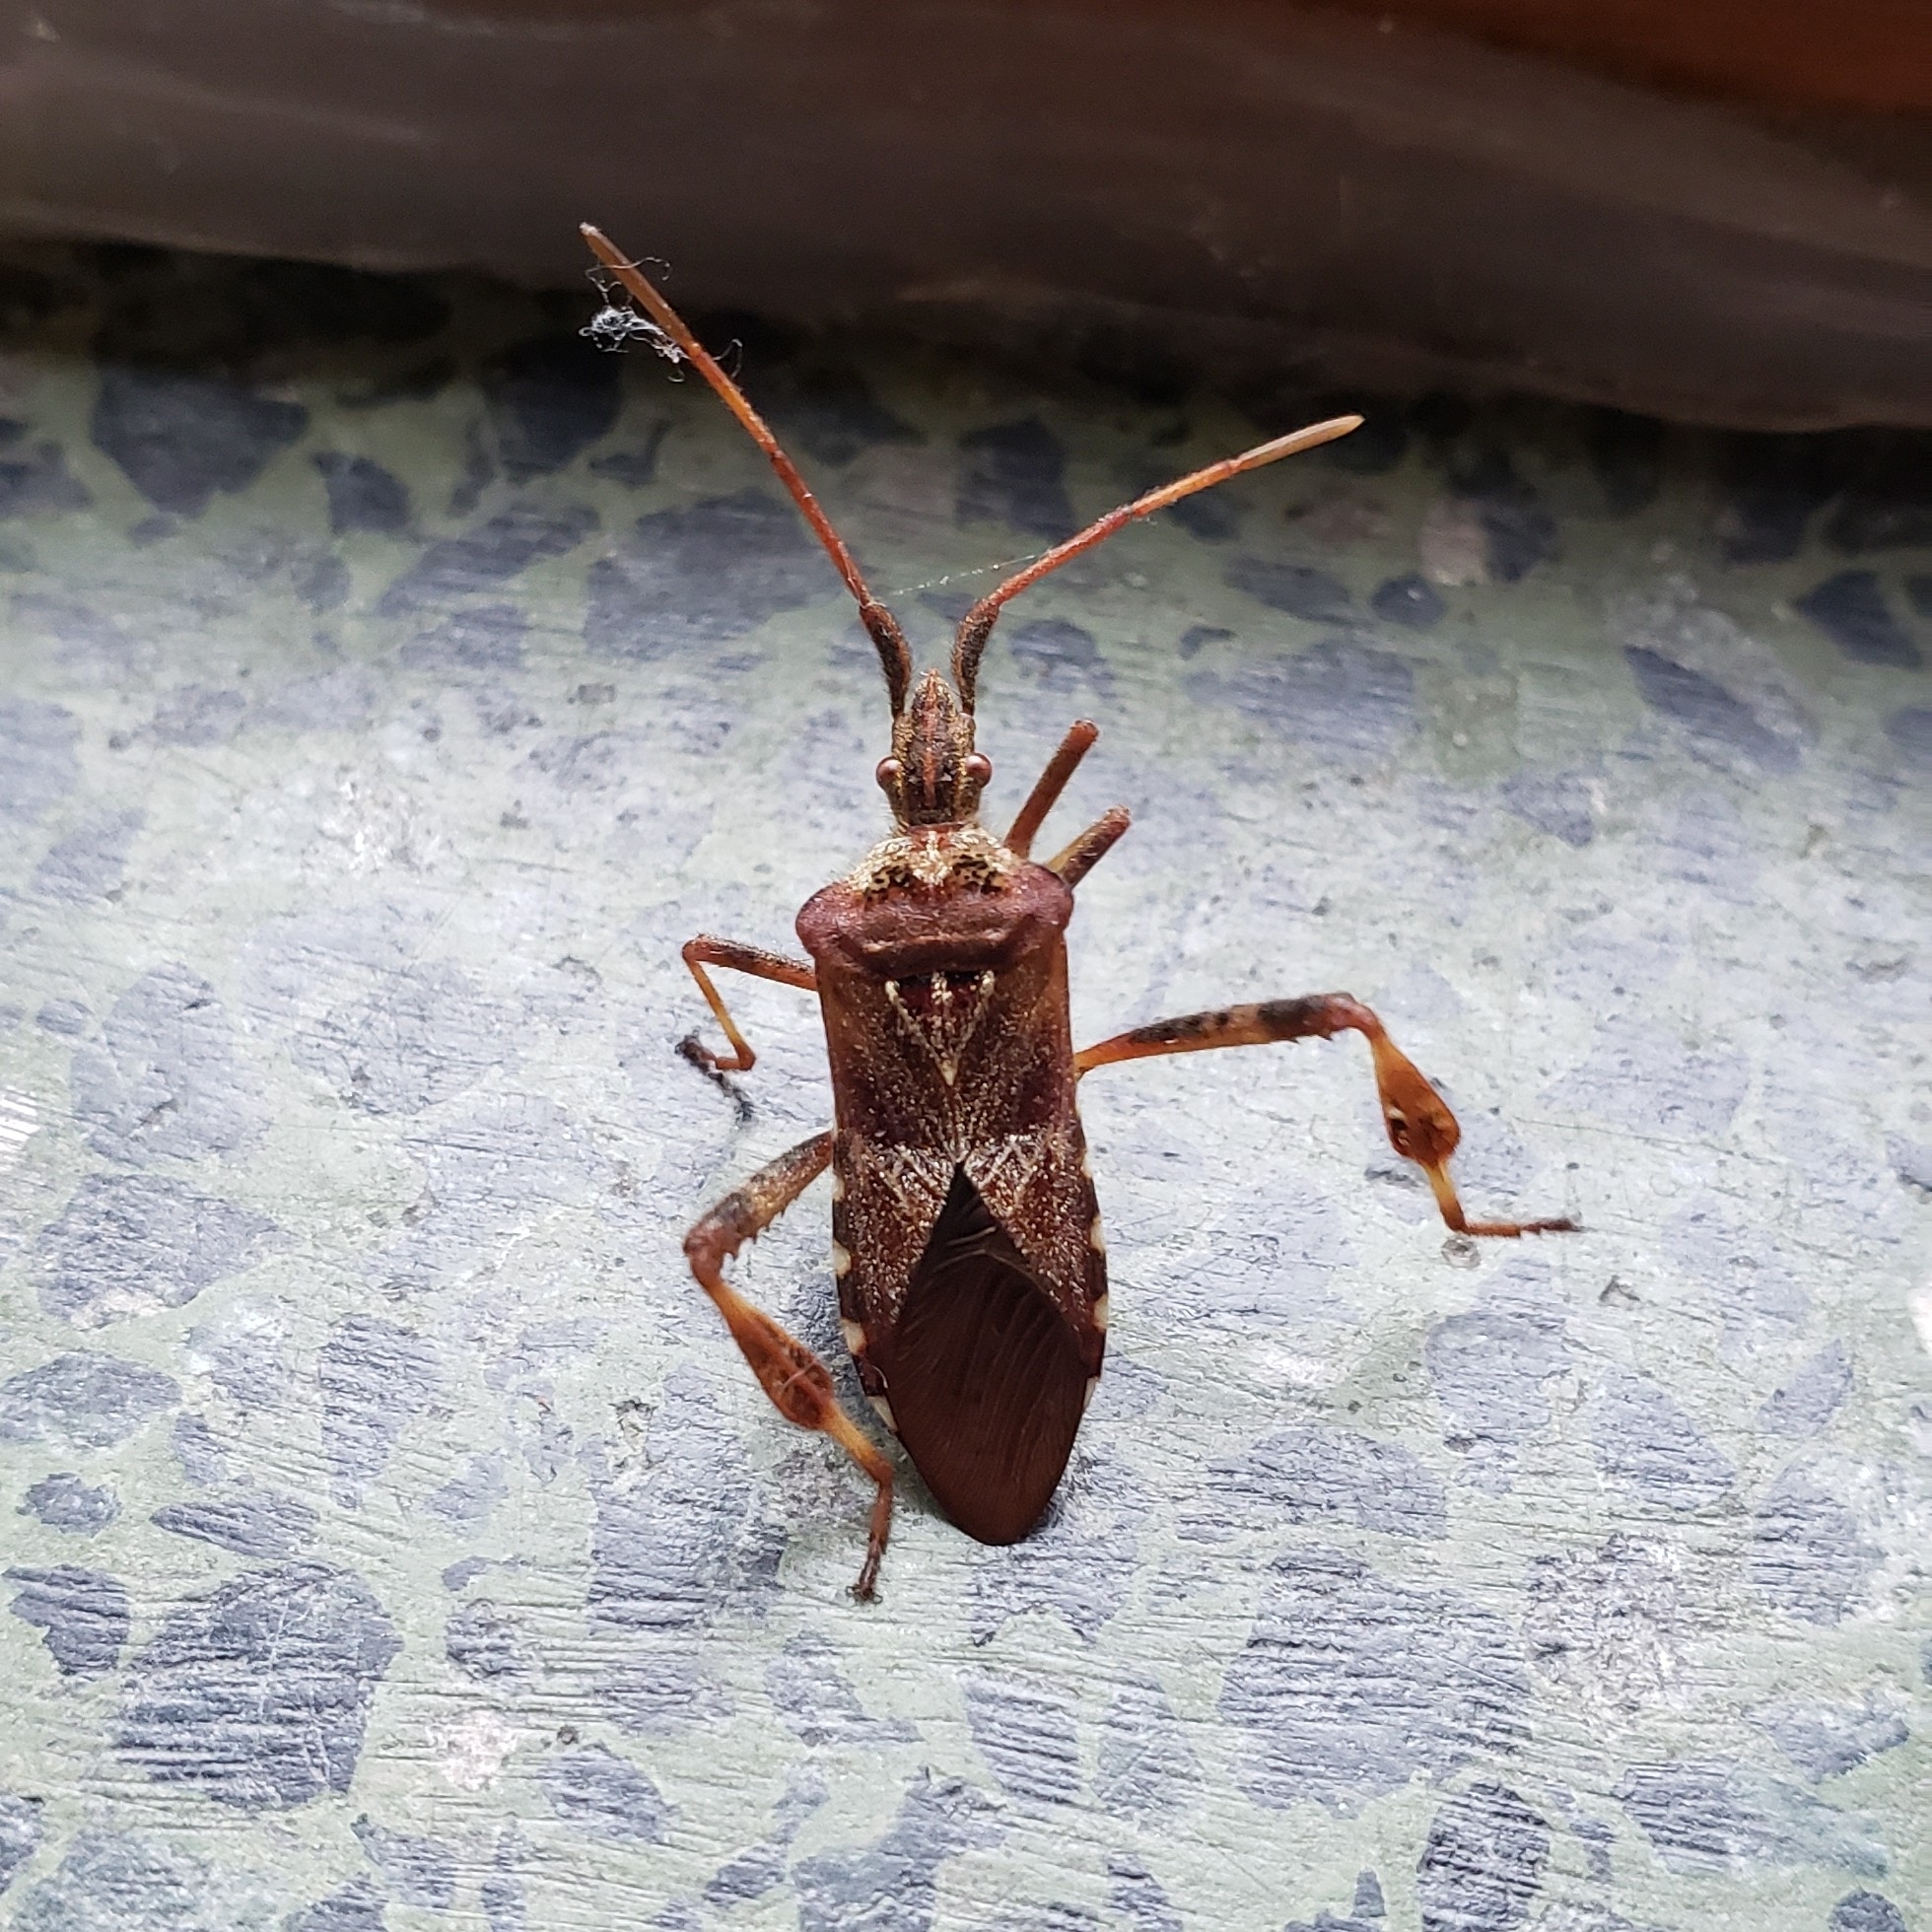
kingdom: Animalia
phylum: Arthropoda
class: Insecta
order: Hemiptera
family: Coreidae
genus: Leptoglossus
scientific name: Leptoglossus occidentalis
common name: Western conifer-seed bug
